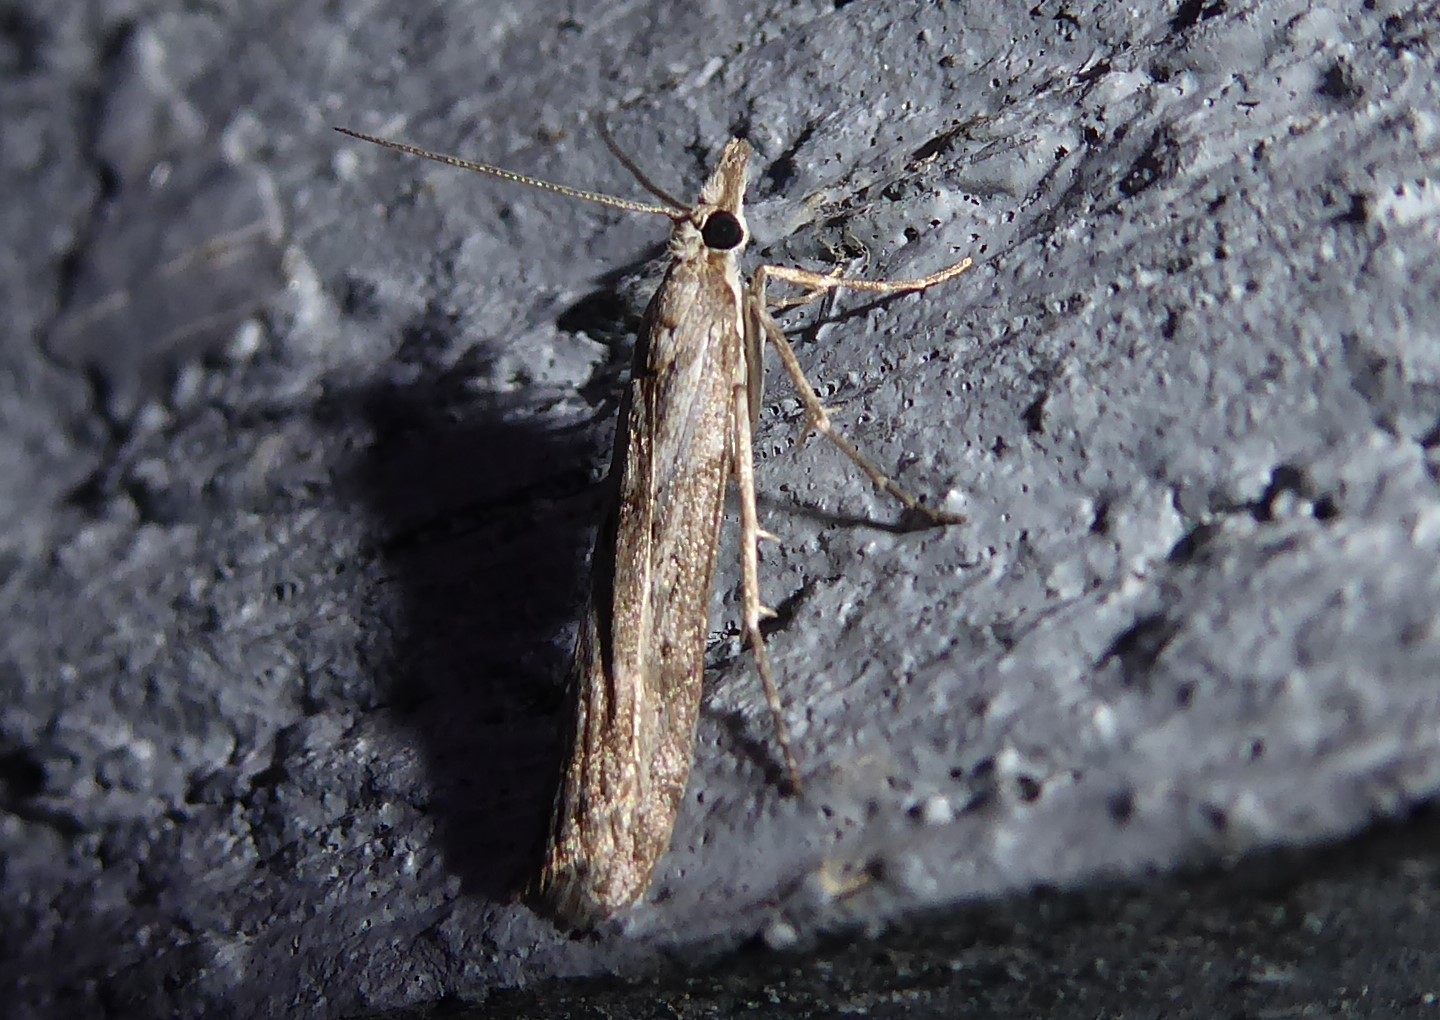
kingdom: Animalia
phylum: Arthropoda
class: Insecta
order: Lepidoptera
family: Crambidae
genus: Eudonia
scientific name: Eudonia leptalea
